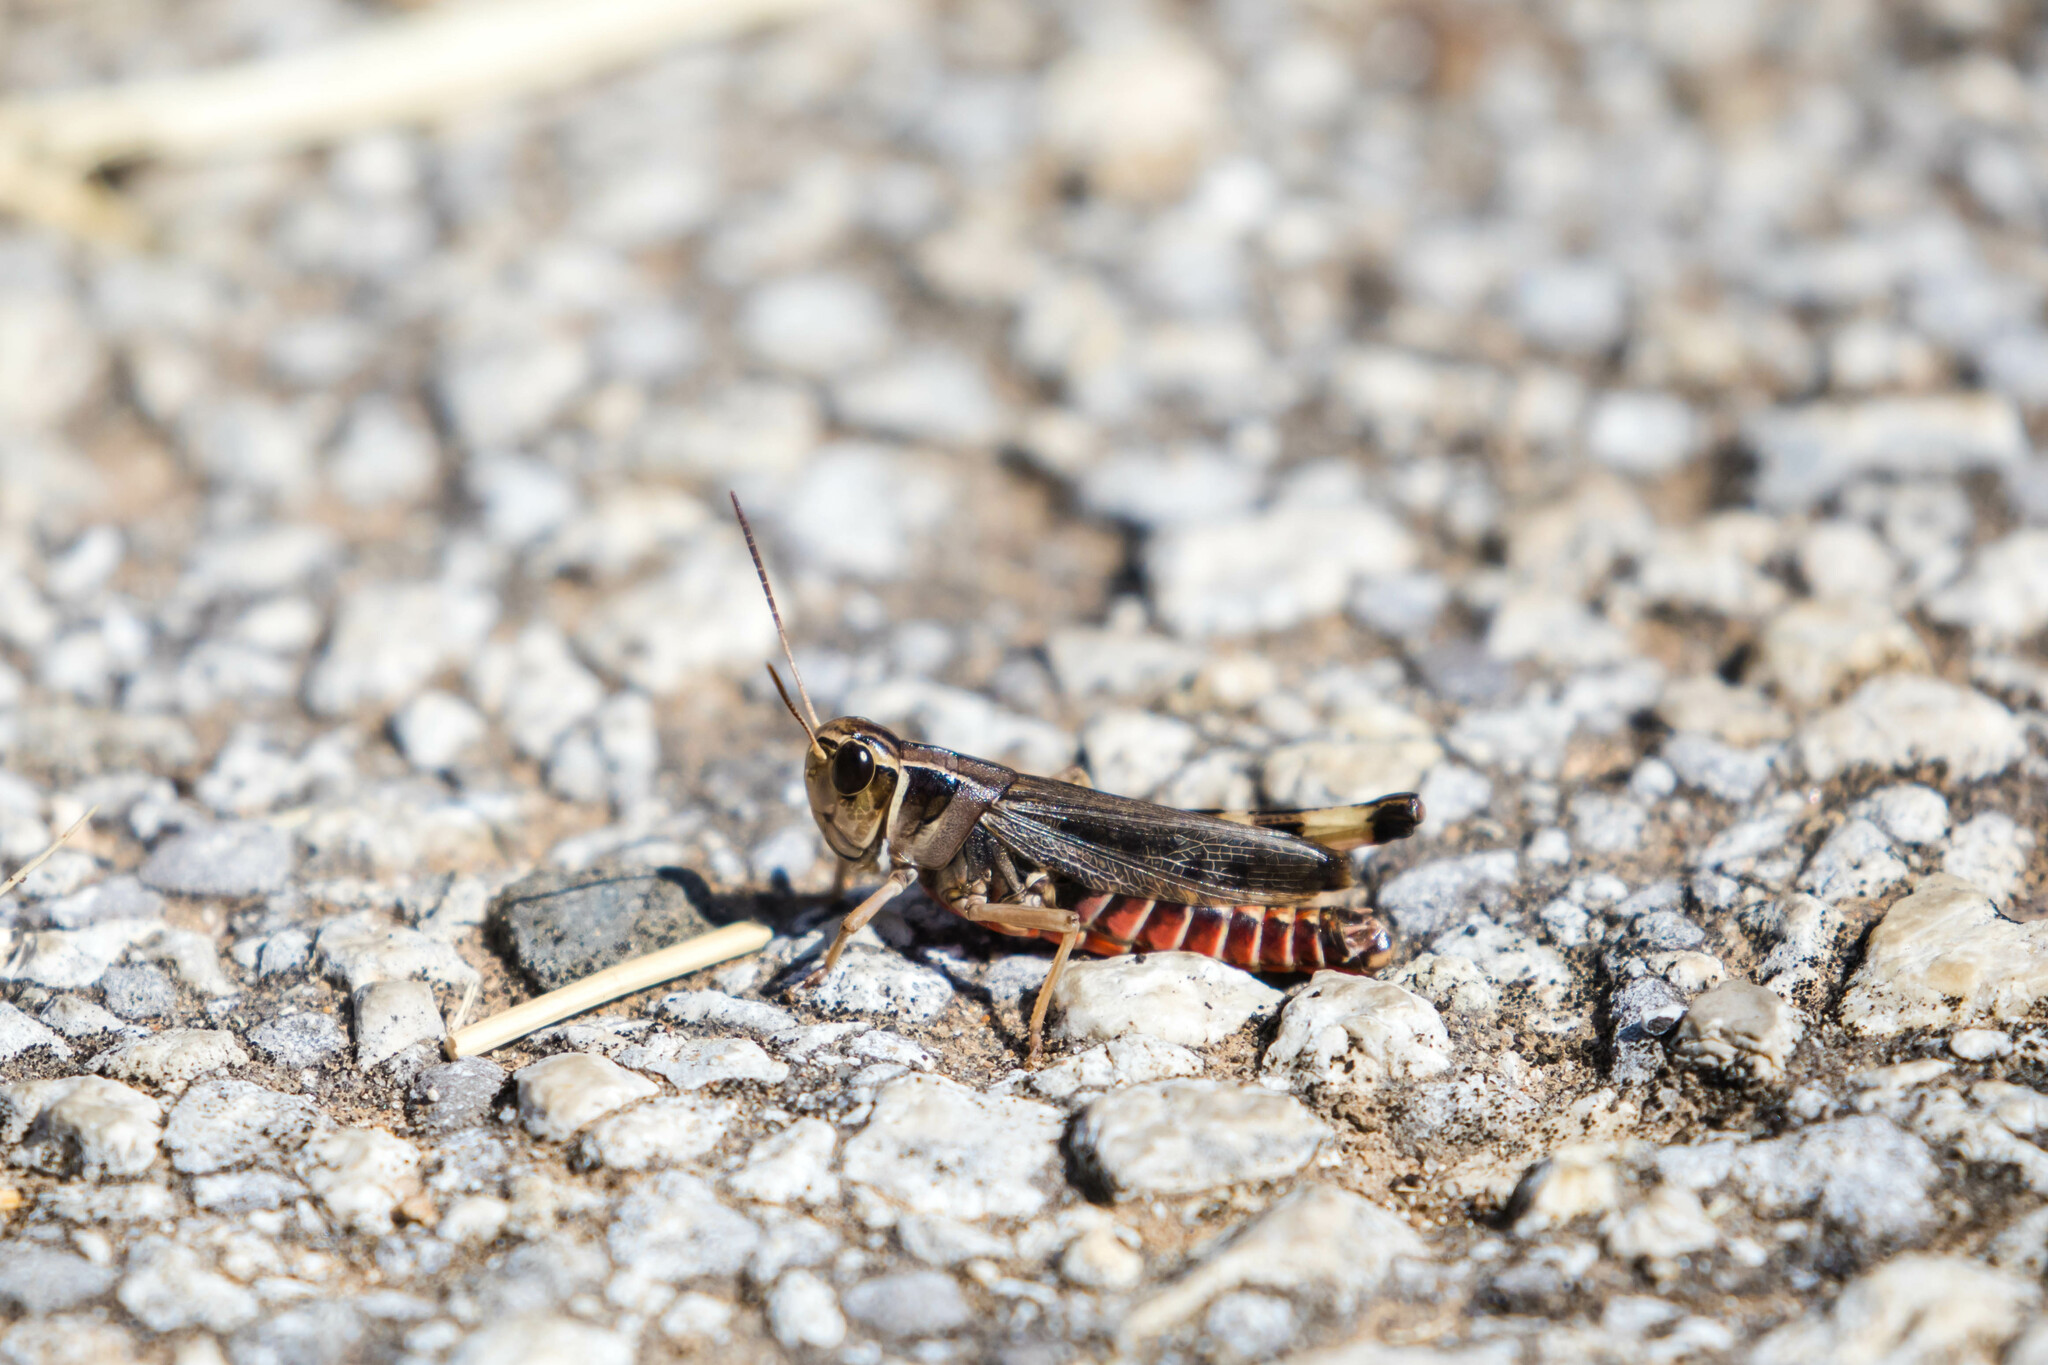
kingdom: Animalia
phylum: Arthropoda
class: Insecta
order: Orthoptera
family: Acrididae
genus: Boopedon
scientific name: Boopedon gracile
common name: Graceful range grasshopper
